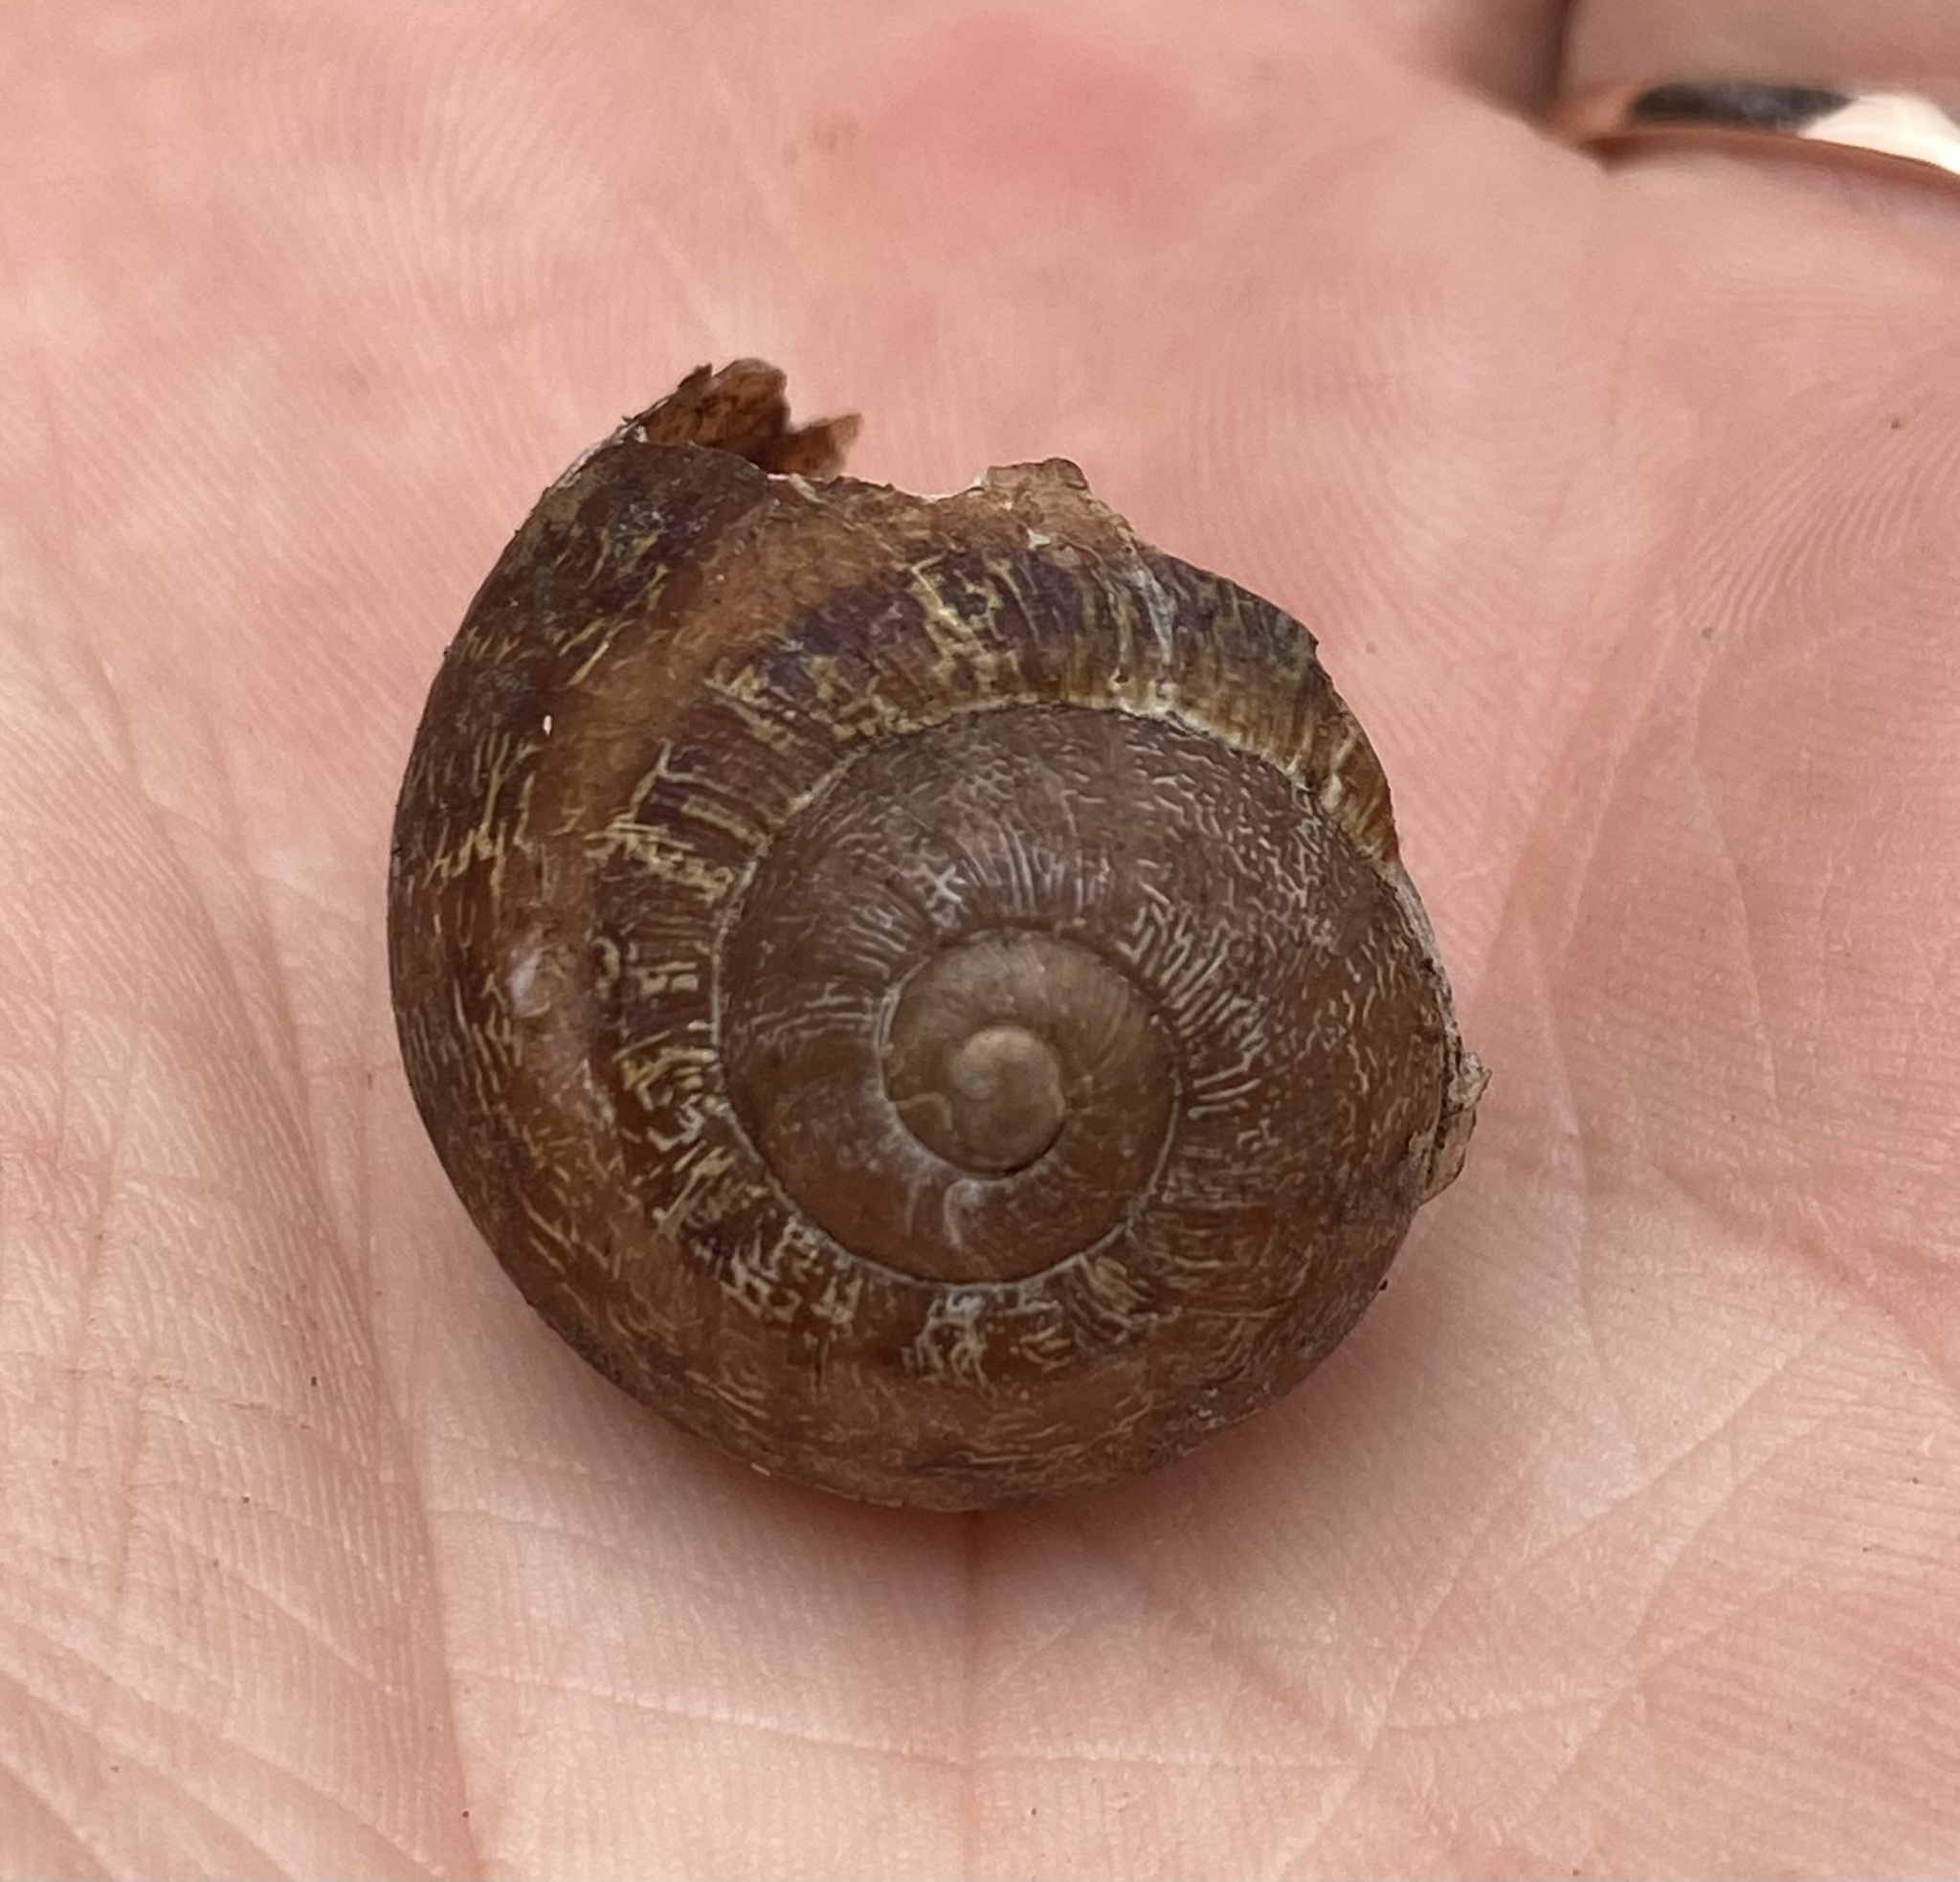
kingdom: Animalia
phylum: Mollusca
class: Gastropoda
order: Stylommatophora
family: Helicidae
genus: Cornu
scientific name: Cornu aspersum
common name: Brown garden snail
